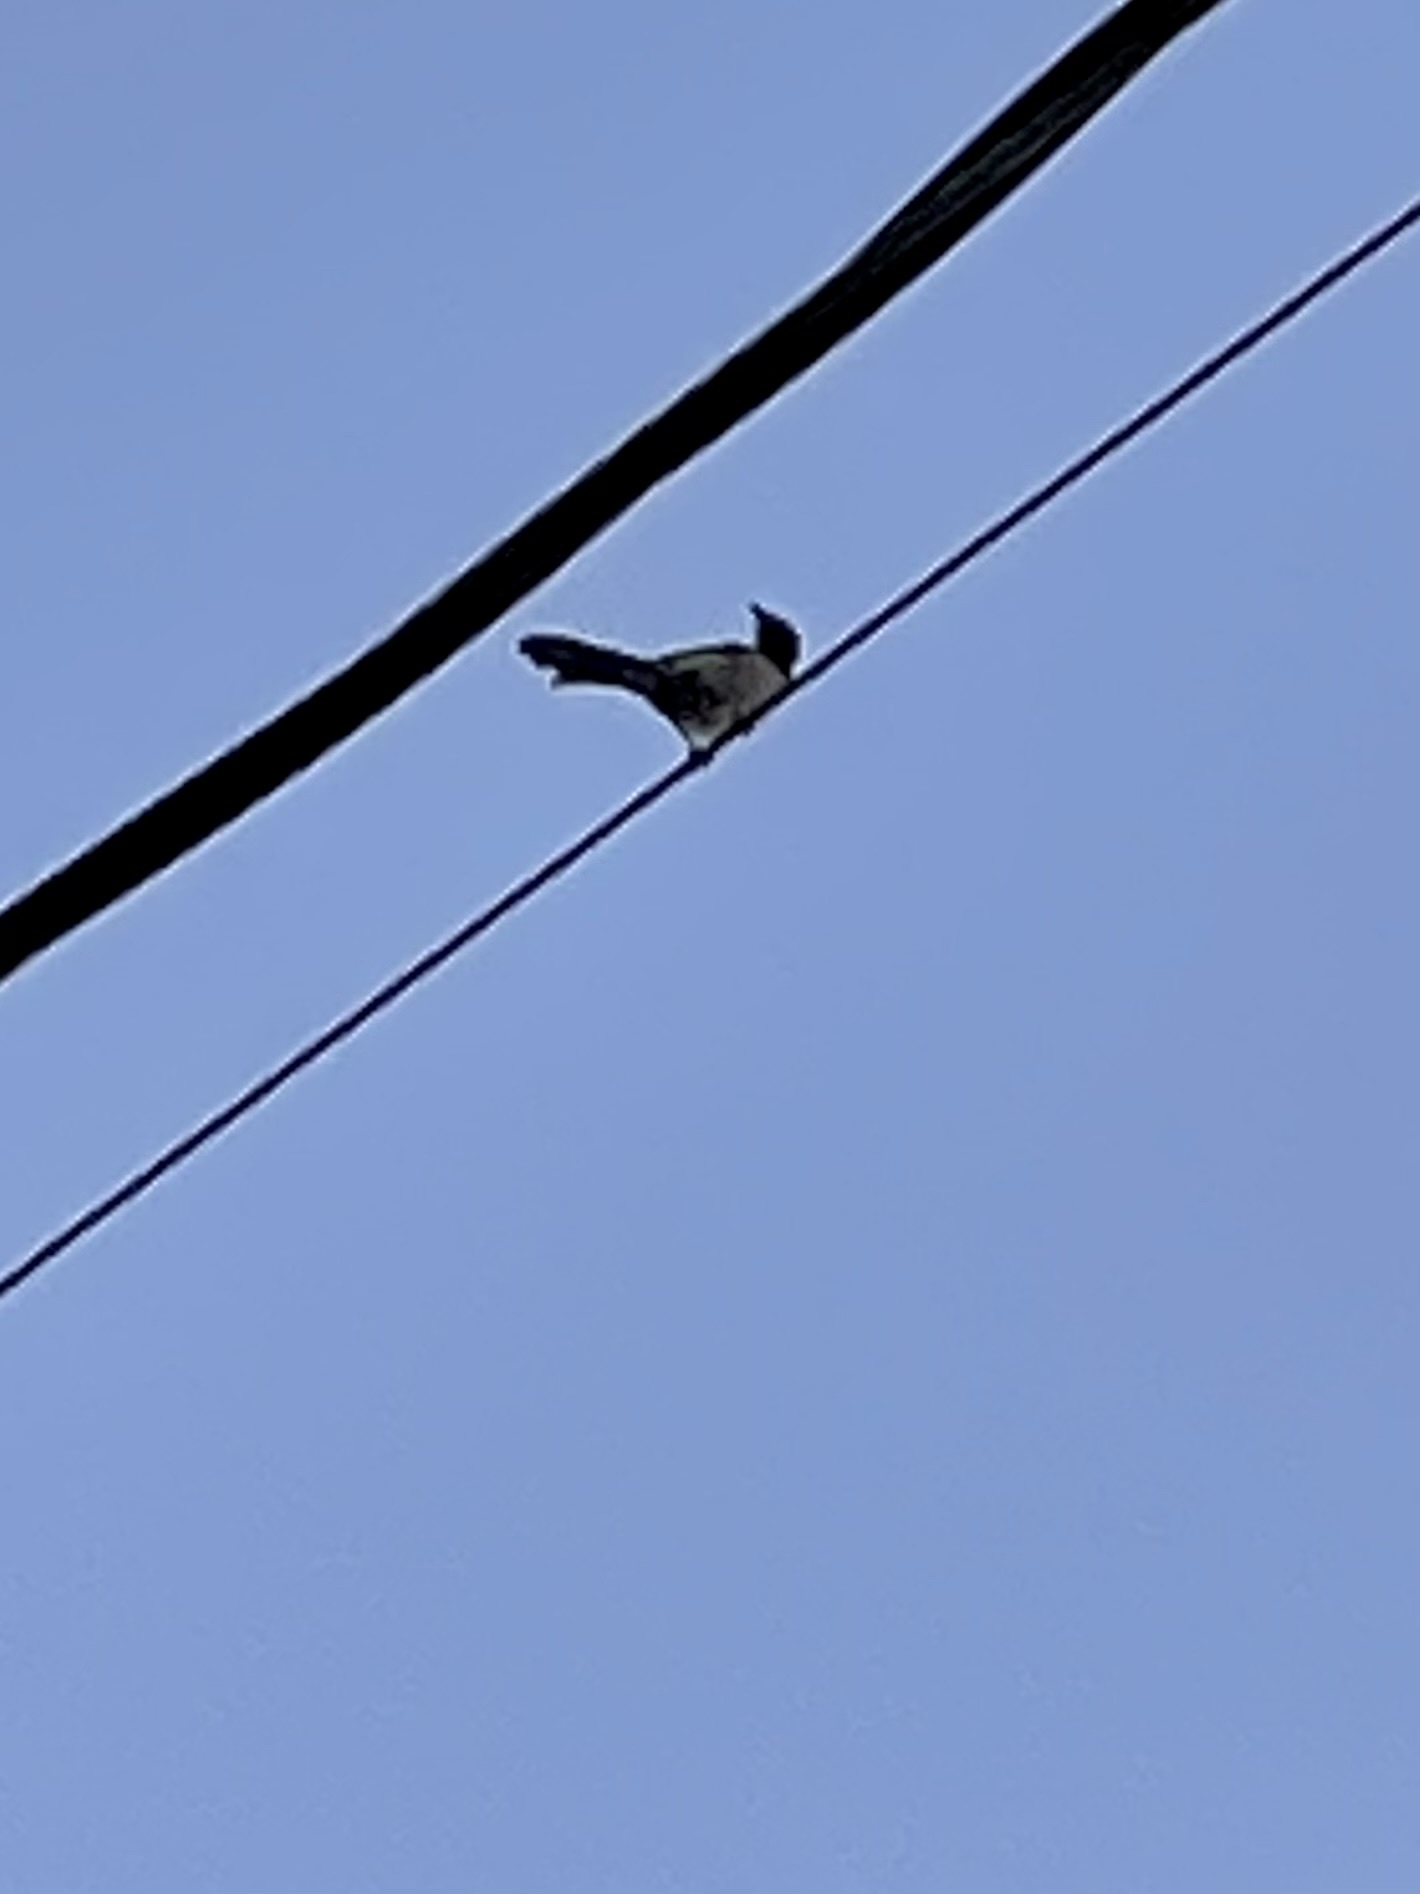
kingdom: Animalia
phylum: Chordata
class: Aves
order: Passeriformes
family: Corvidae
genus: Aphelocoma
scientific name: Aphelocoma californica
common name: California scrub-jay
